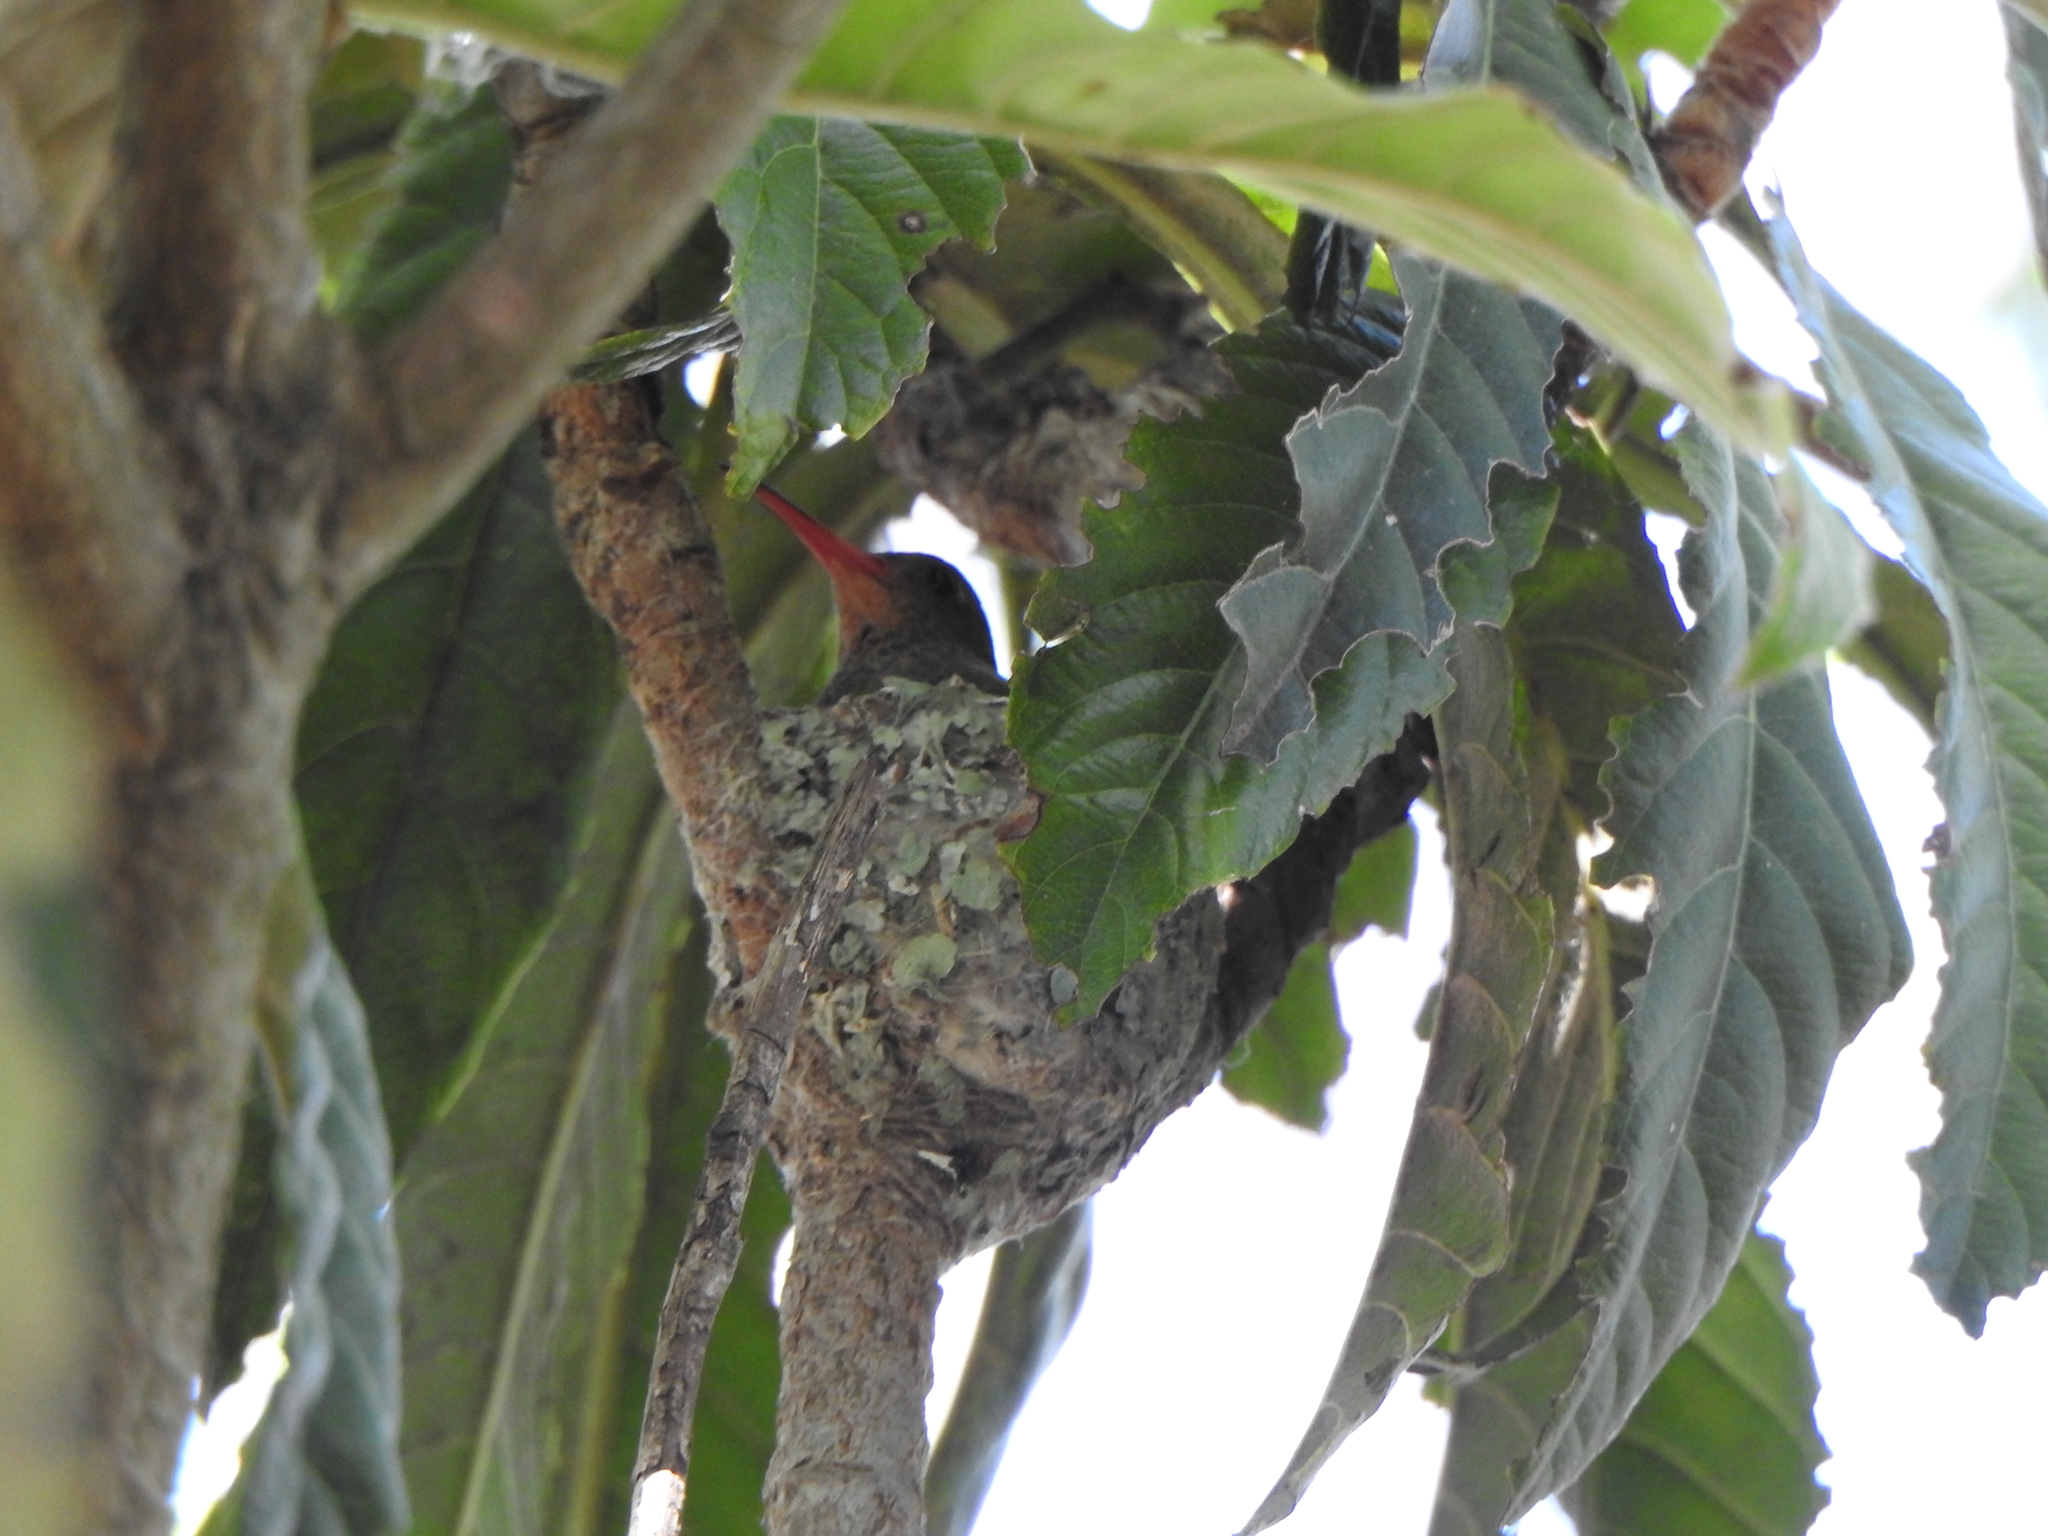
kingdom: Animalia
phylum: Chordata
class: Aves
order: Apodiformes
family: Trochilidae
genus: Hylocharis
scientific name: Hylocharis chrysura
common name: Gilded sapphire
